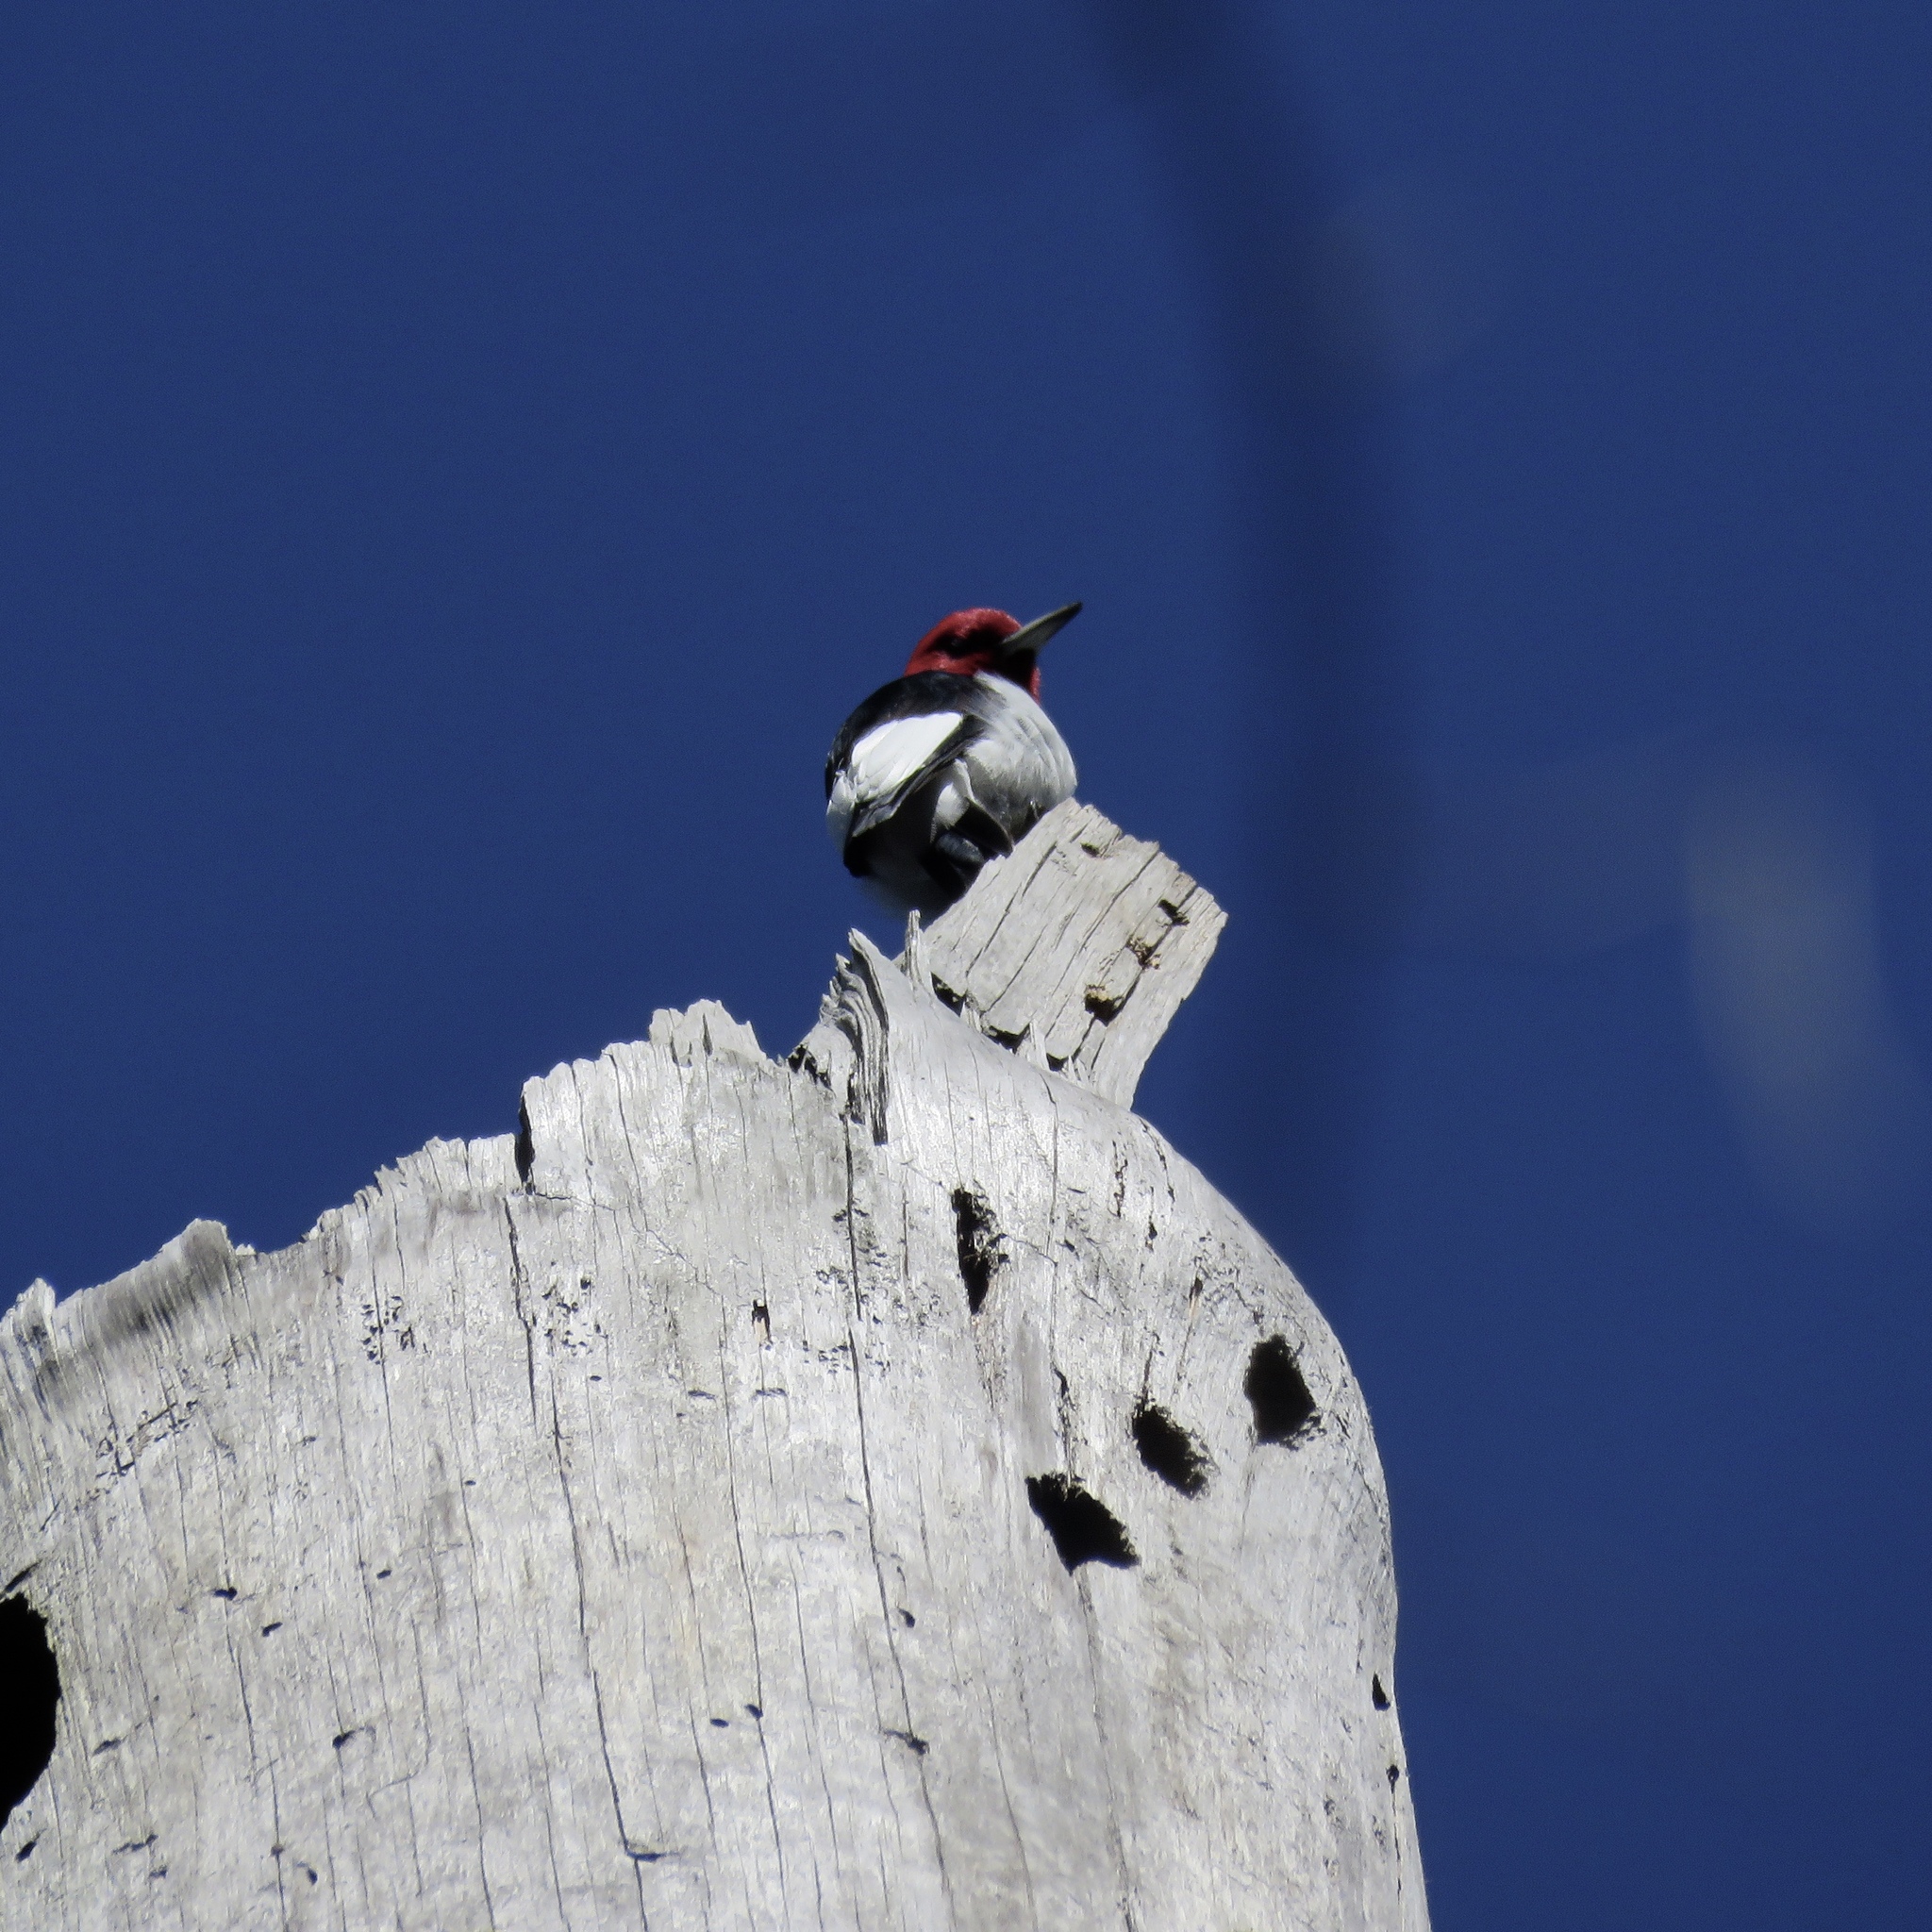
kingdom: Animalia
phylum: Chordata
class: Aves
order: Piciformes
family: Picidae
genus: Melanerpes
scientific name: Melanerpes erythrocephalus
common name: Red-headed woodpecker
